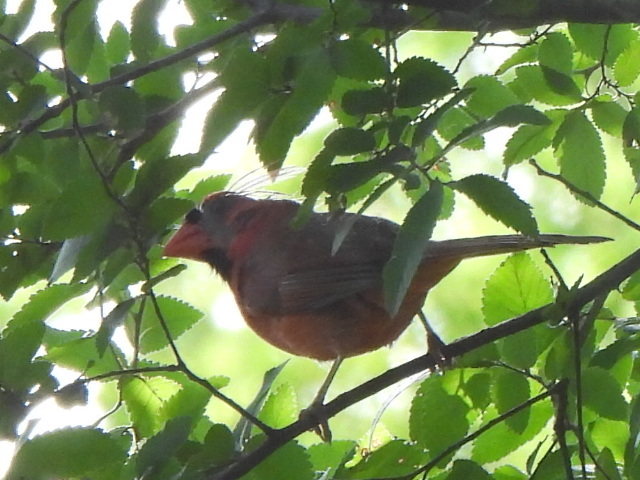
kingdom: Animalia
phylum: Chordata
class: Aves
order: Passeriformes
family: Cardinalidae
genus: Cardinalis
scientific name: Cardinalis cardinalis
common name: Northern cardinal
